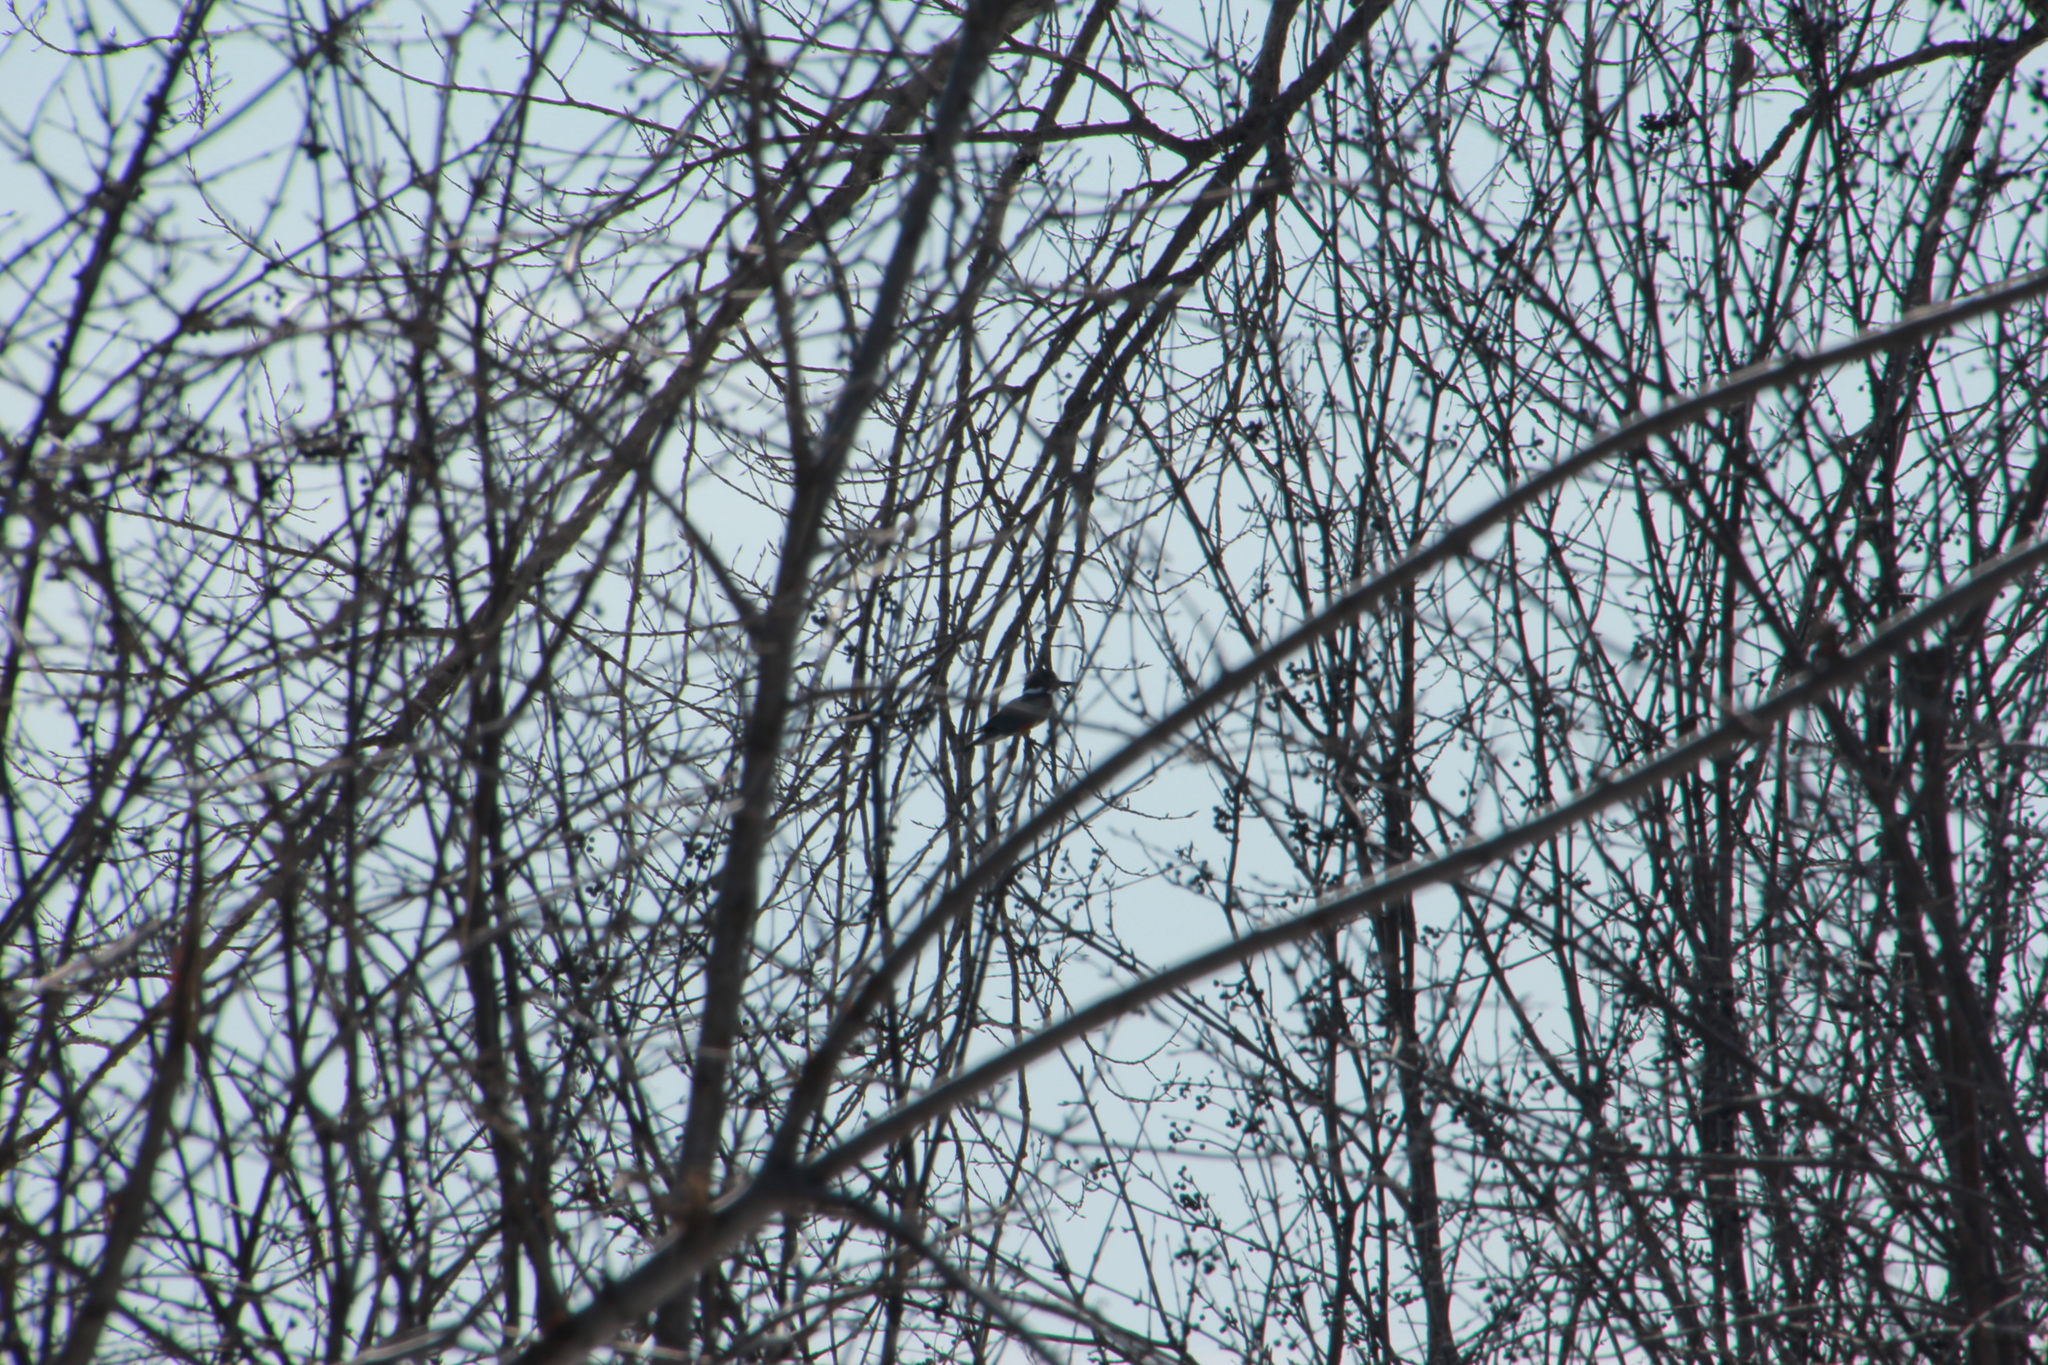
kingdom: Animalia
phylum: Chordata
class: Aves
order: Coraciiformes
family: Alcedinidae
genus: Megaceryle
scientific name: Megaceryle alcyon
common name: Belted kingfisher
